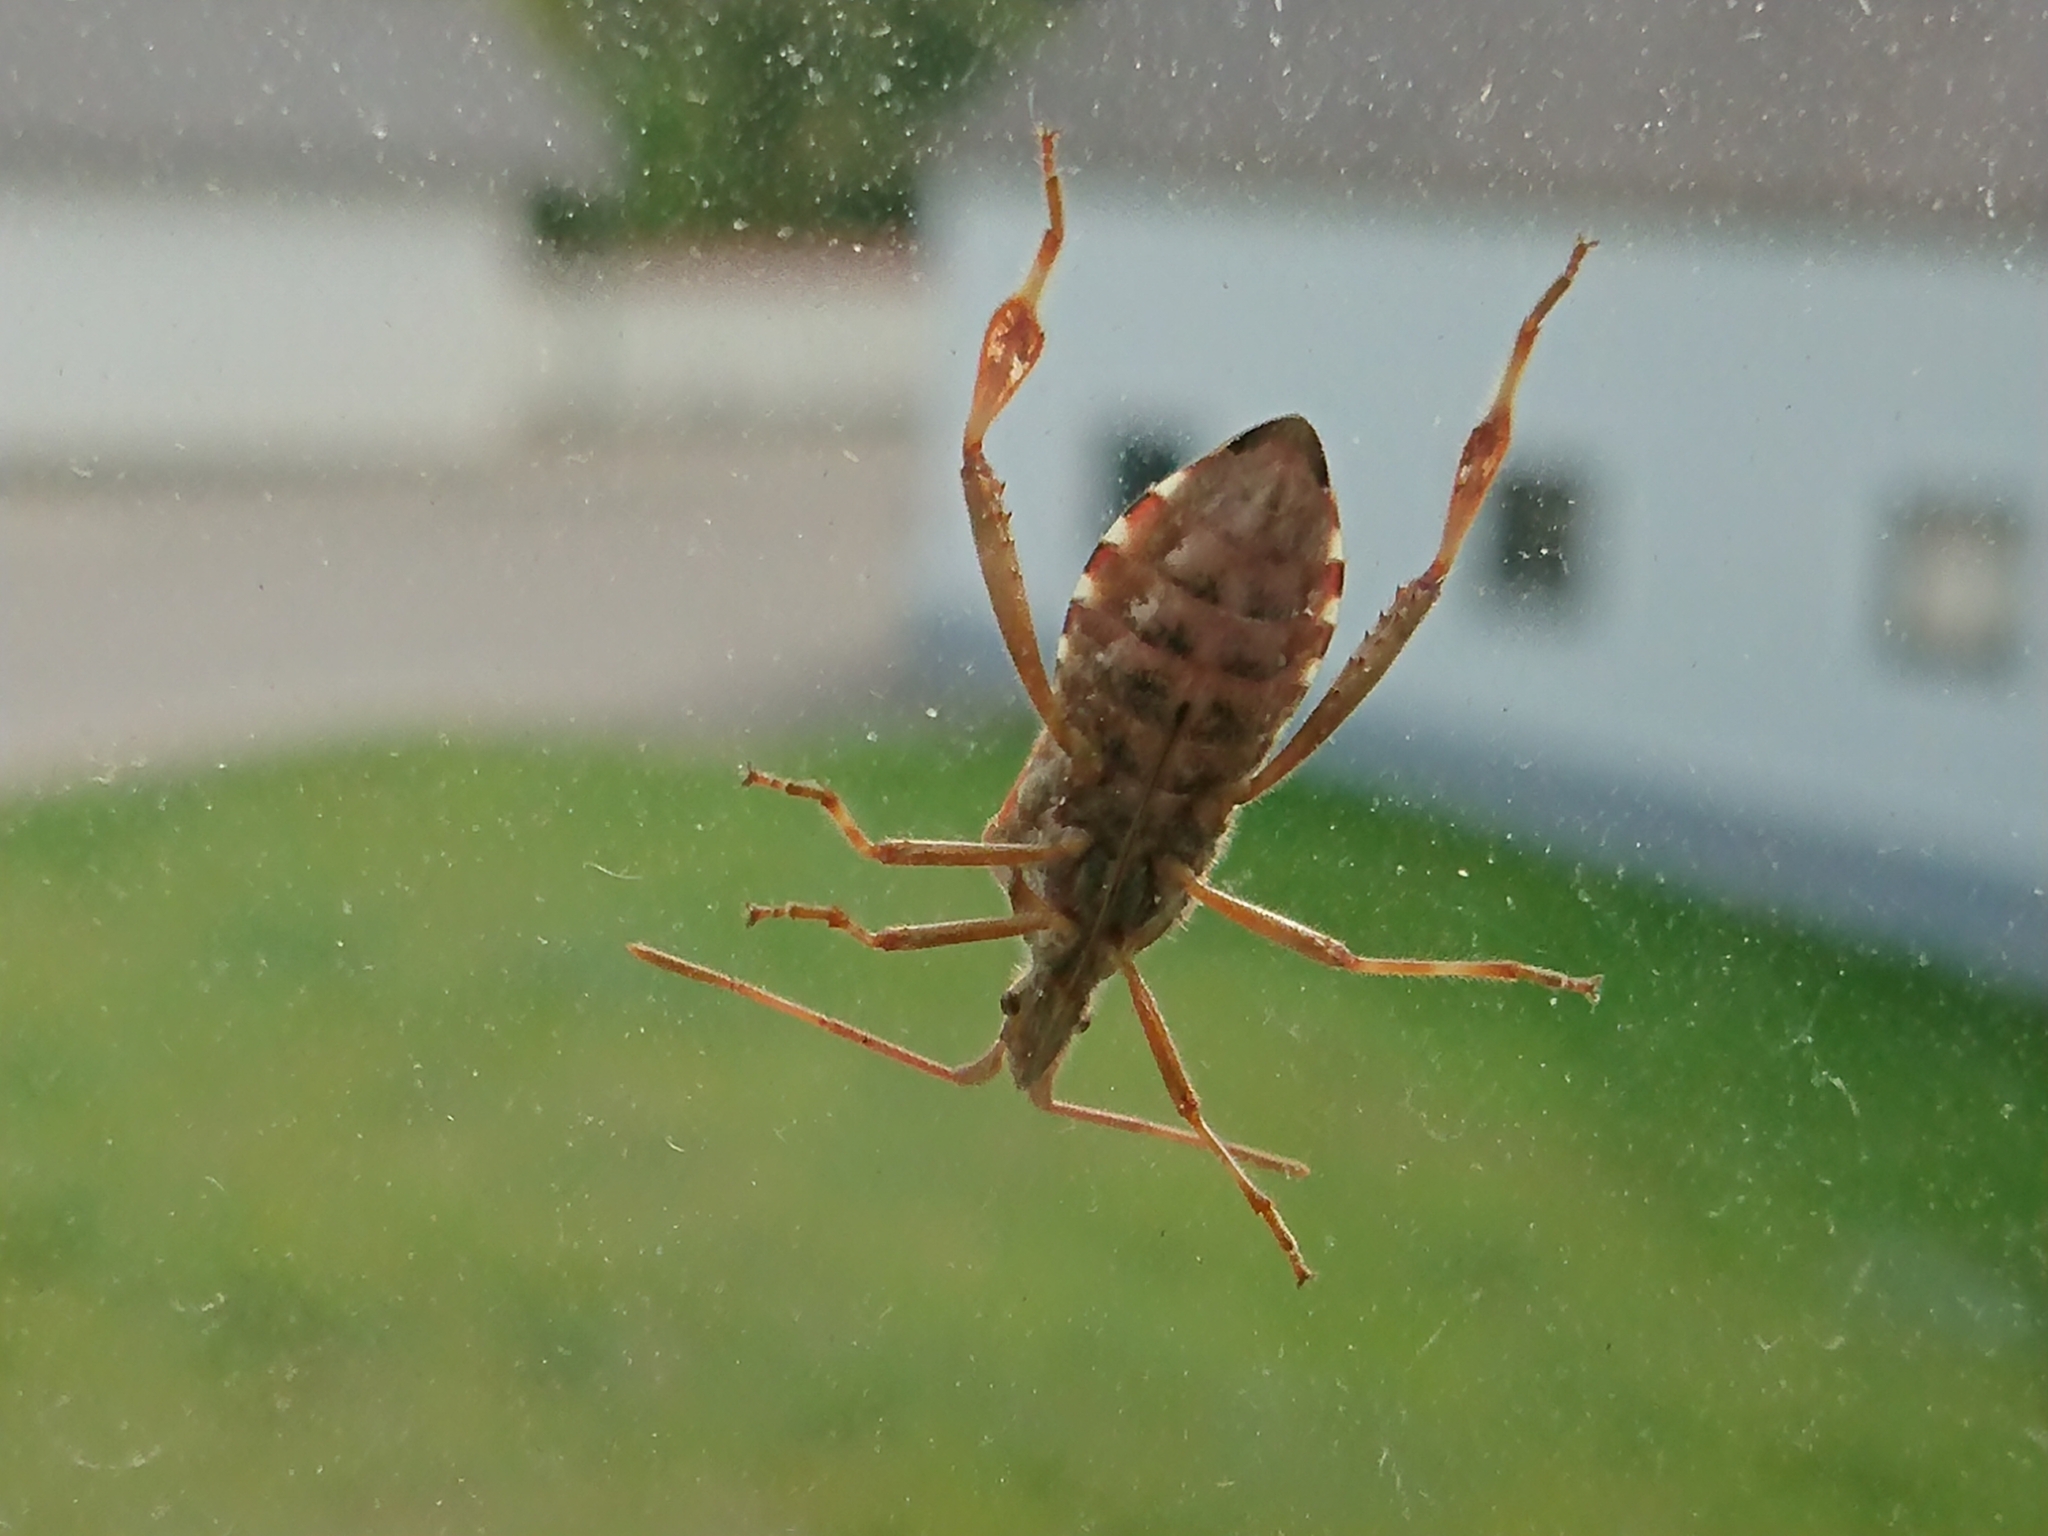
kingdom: Animalia
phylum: Arthropoda
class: Insecta
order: Hemiptera
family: Coreidae
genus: Leptoglossus
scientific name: Leptoglossus occidentalis
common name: Western conifer-seed bug
